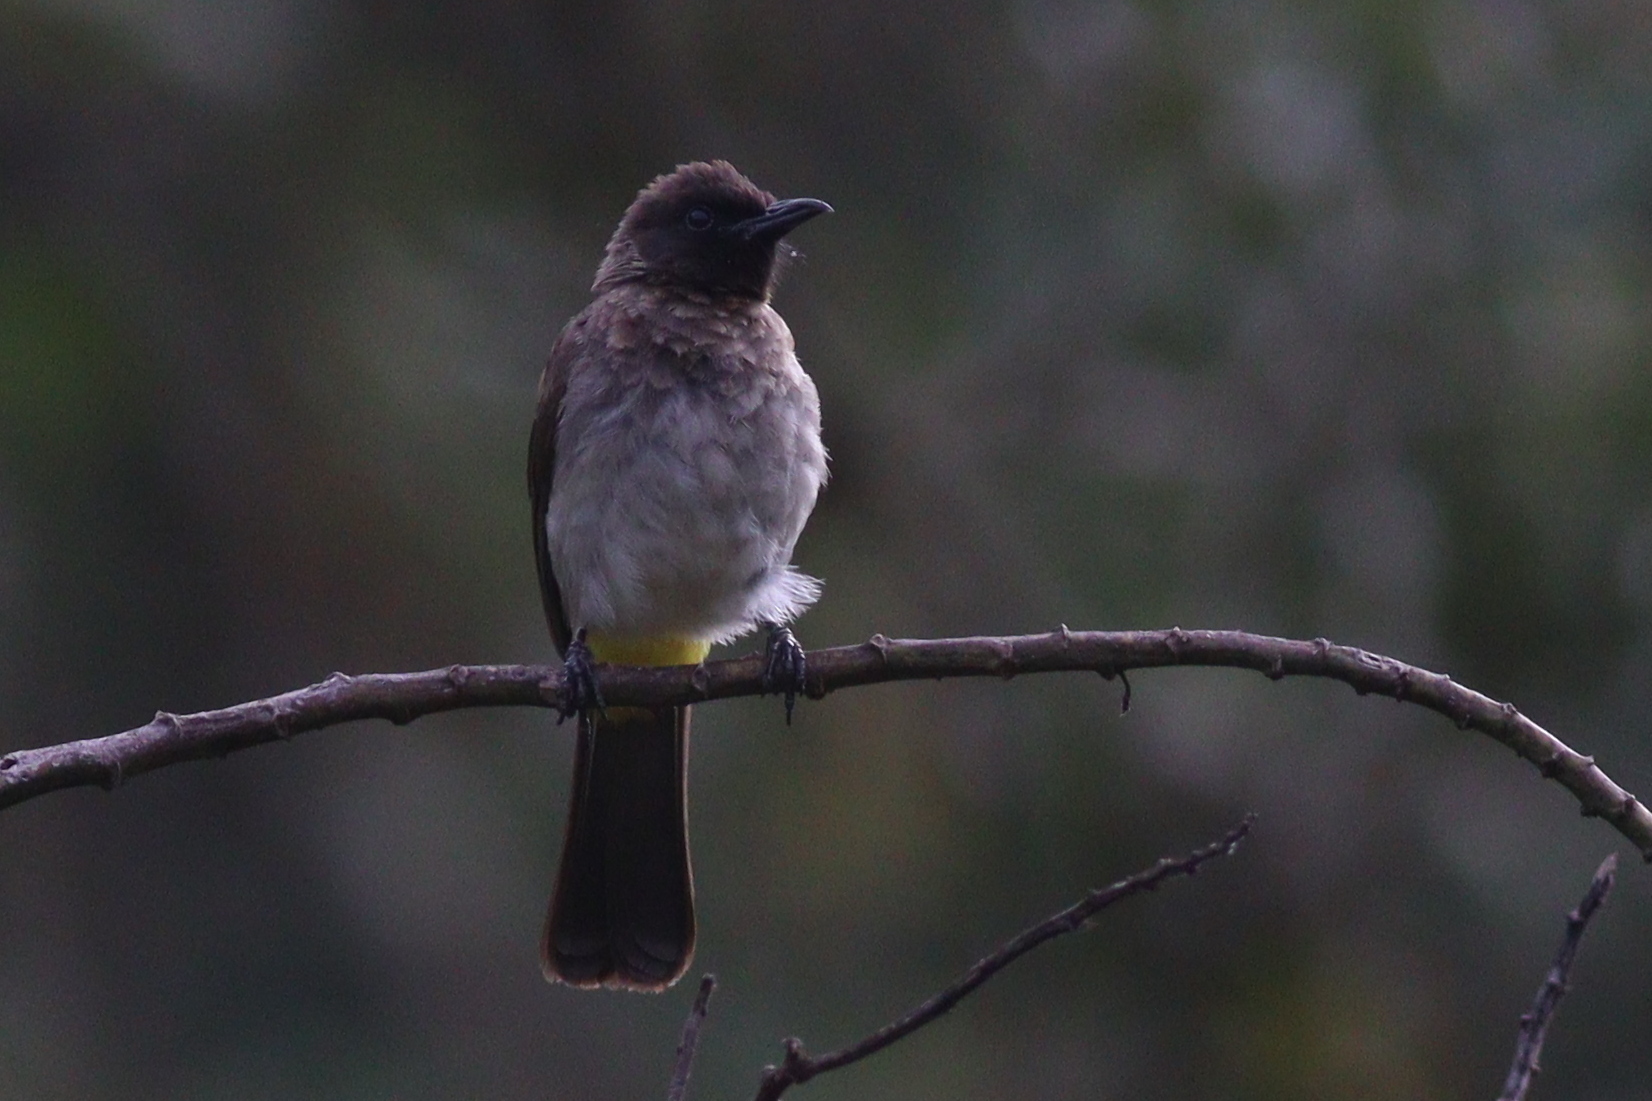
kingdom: Animalia
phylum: Chordata
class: Aves
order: Passeriformes
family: Pycnonotidae
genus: Pycnonotus
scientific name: Pycnonotus barbatus
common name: Common bulbul
